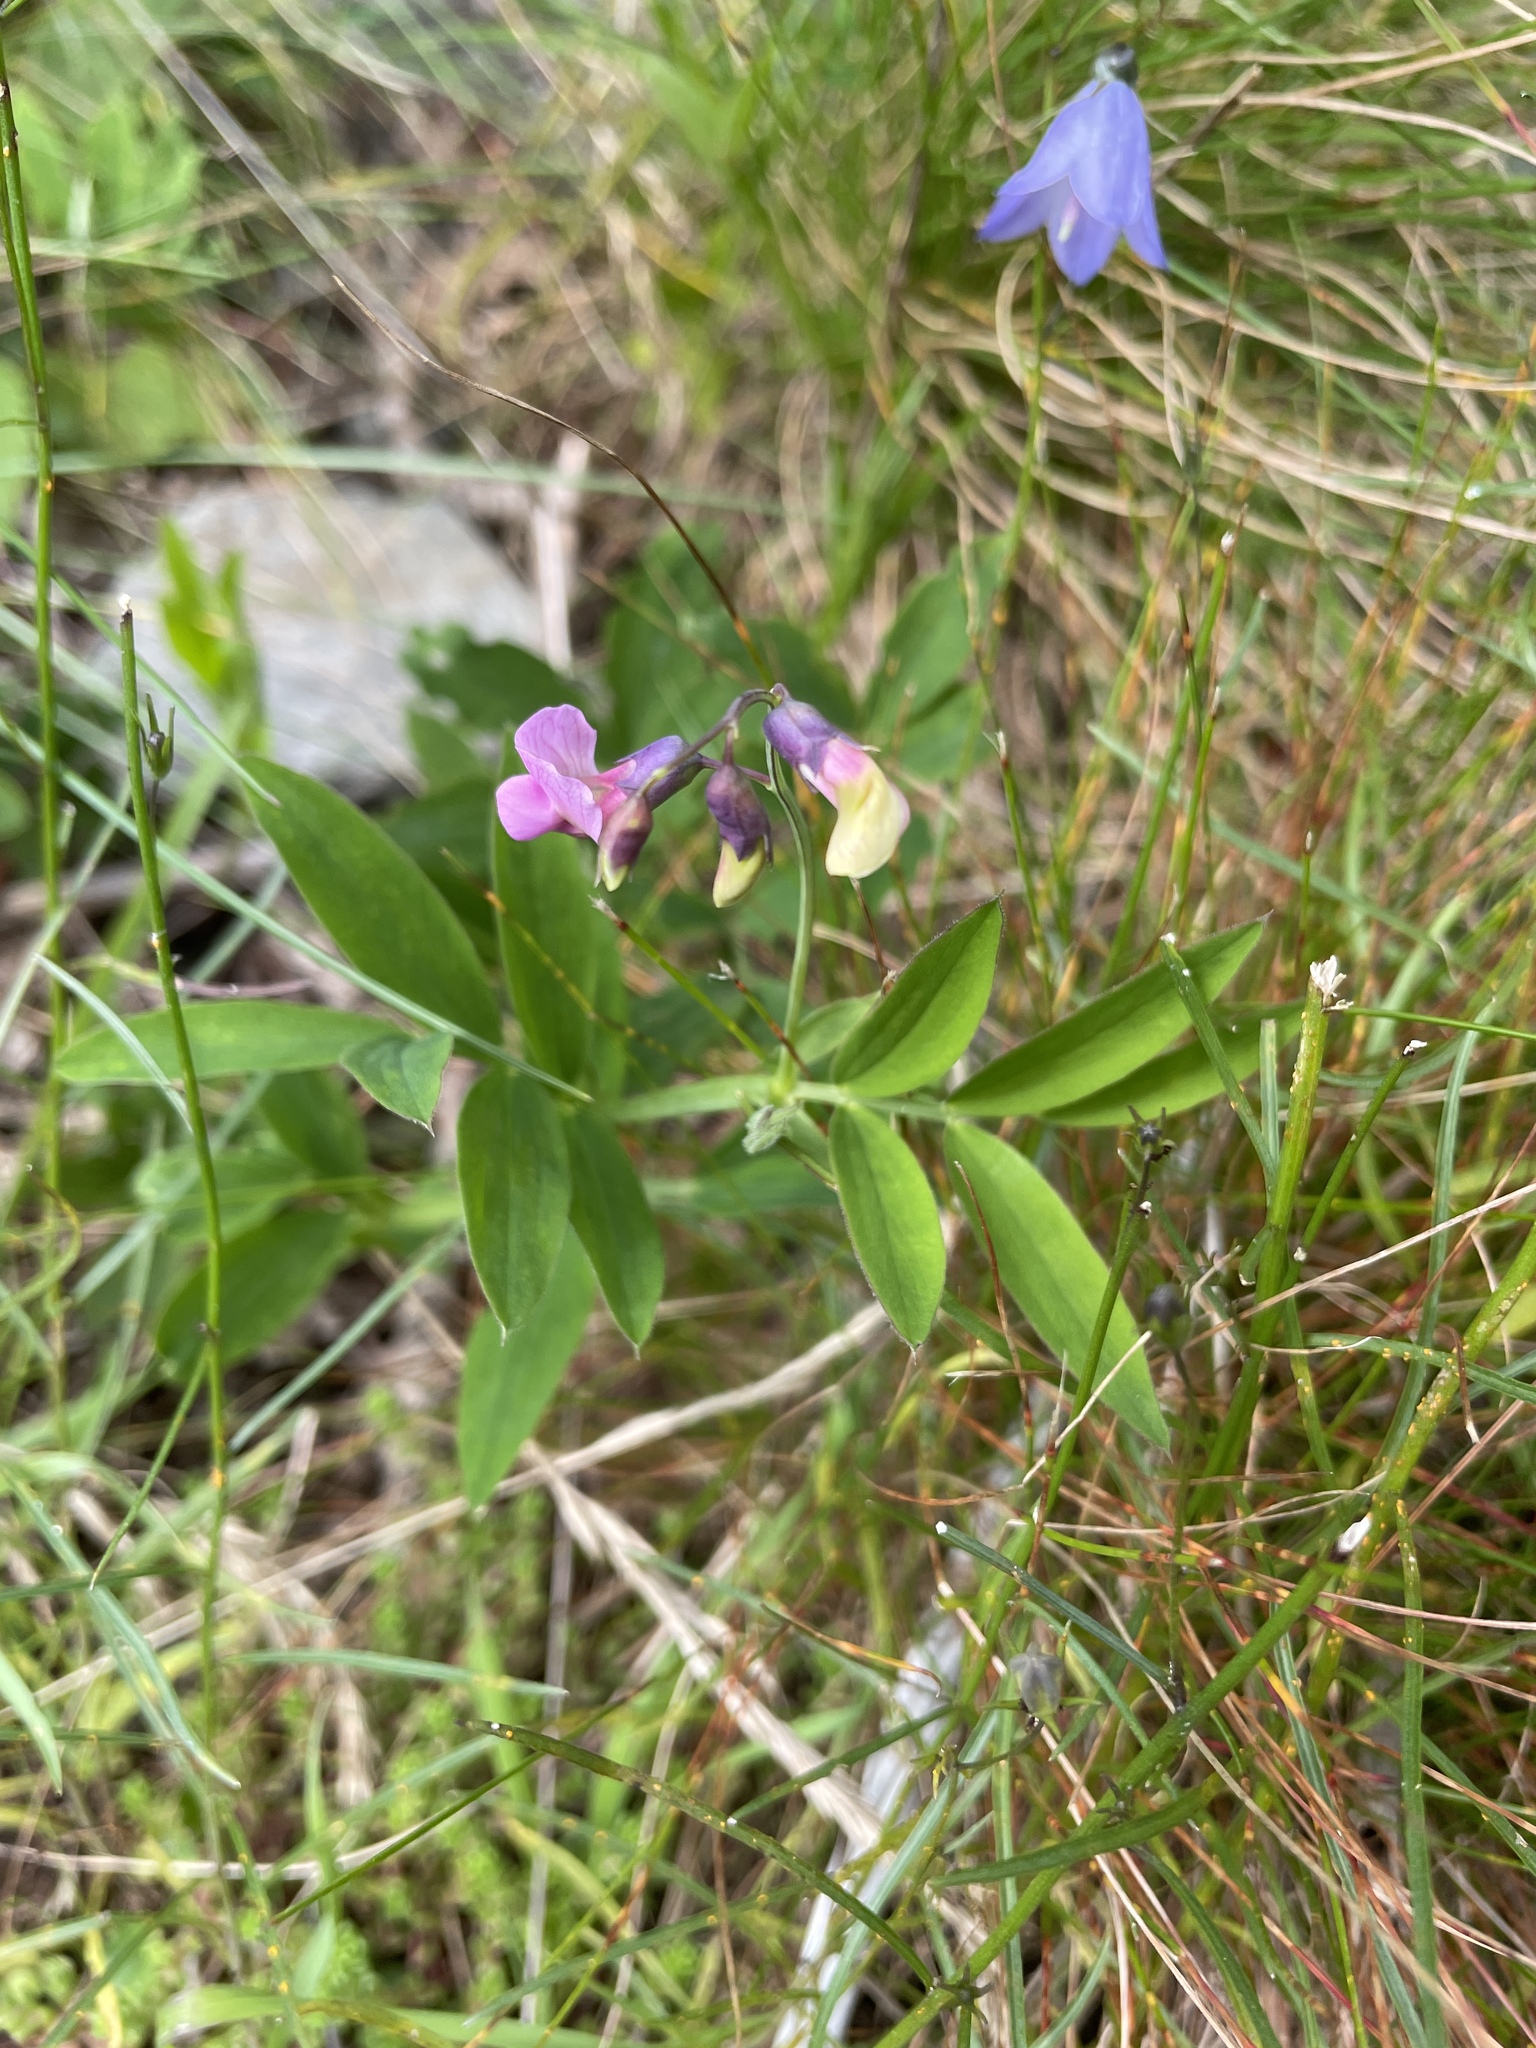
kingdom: Plantae
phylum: Tracheophyta
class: Magnoliopsida
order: Fabales
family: Fabaceae
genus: Lathyrus
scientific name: Lathyrus linifolius
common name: Bitter-vetch
